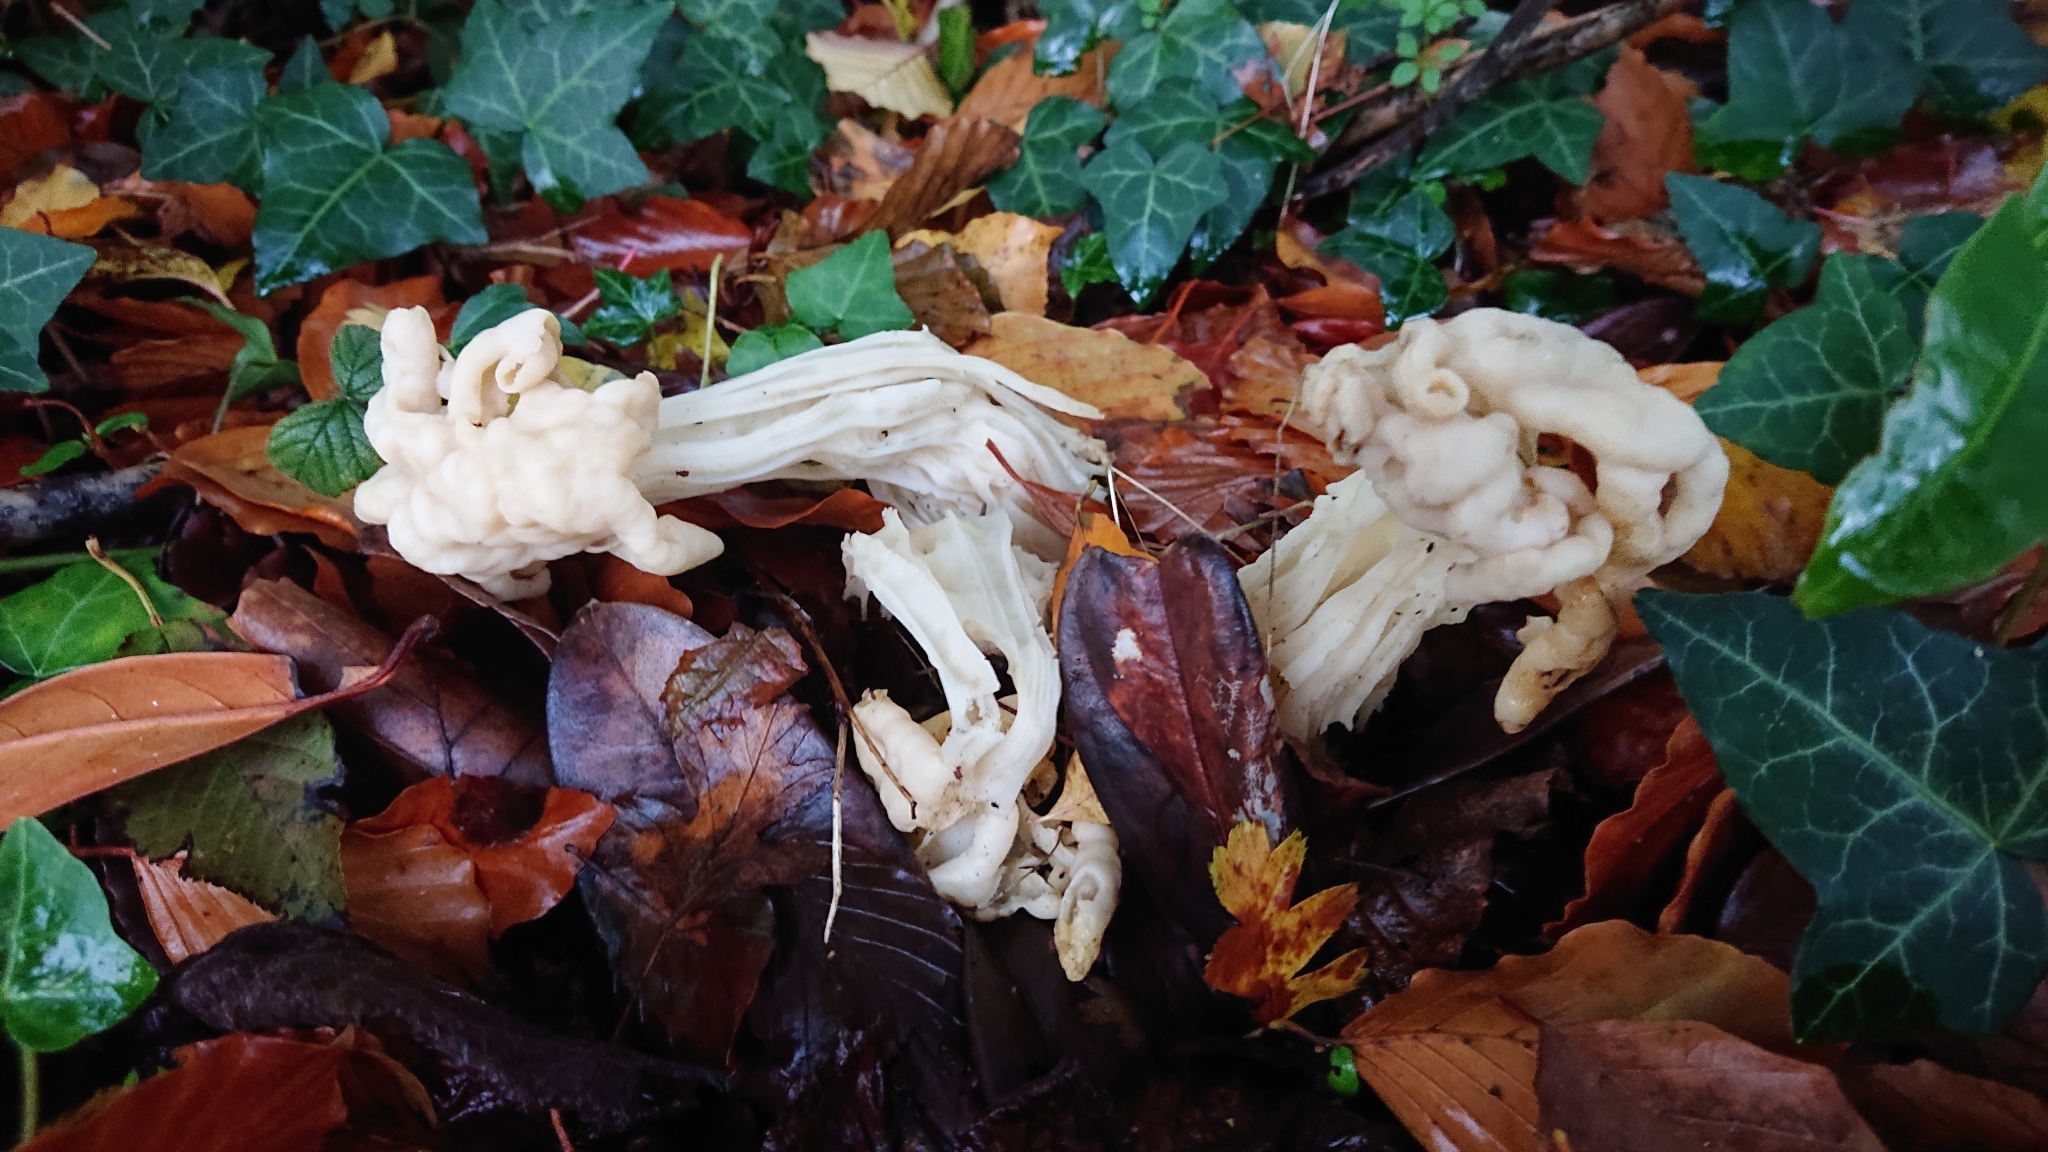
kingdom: Fungi
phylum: Ascomycota
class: Pezizomycetes
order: Pezizales
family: Helvellaceae
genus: Helvella
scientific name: Helvella crispa
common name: White saddle
